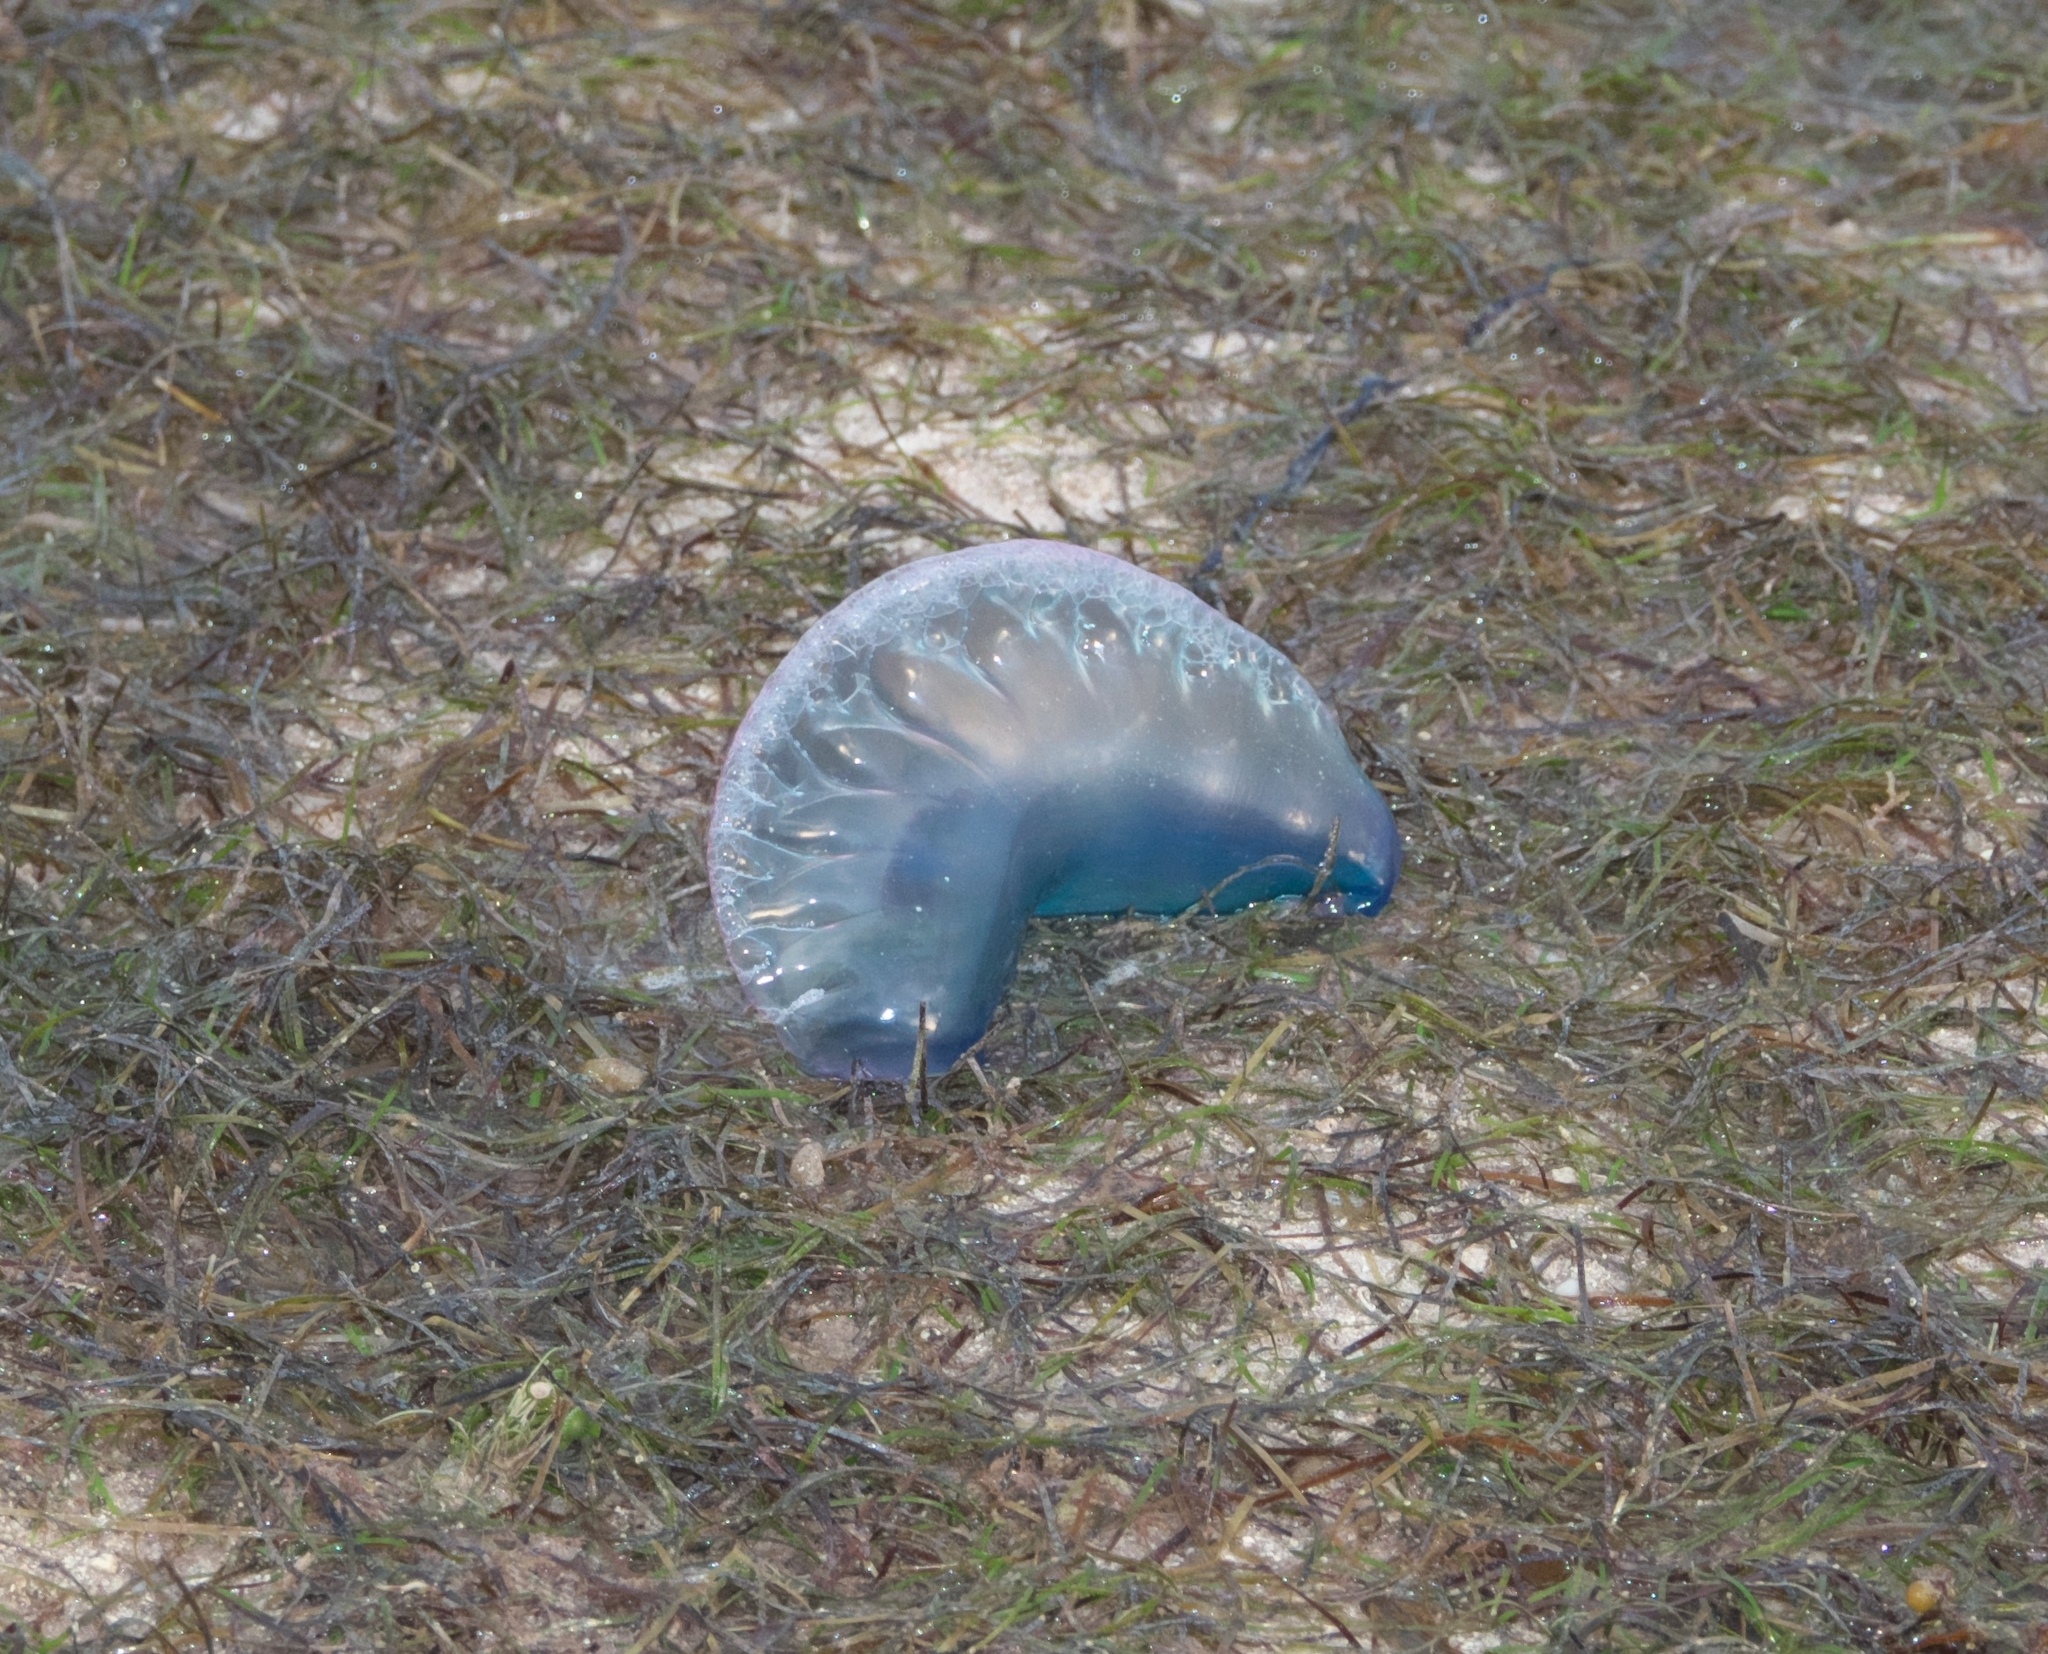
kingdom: Animalia
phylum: Cnidaria
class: Hydrozoa
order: Siphonophorae
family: Physaliidae
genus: Physalia
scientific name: Physalia physalis
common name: Portuguese man-of-war
